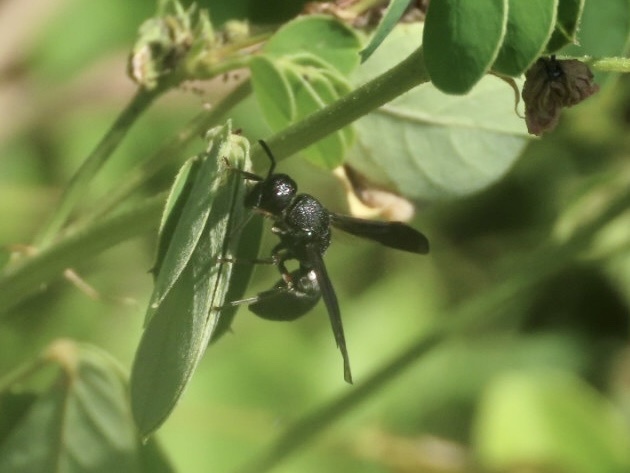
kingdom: Animalia
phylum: Arthropoda
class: Insecta
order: Hymenoptera
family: Eumenidae
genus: Orancistrocerus
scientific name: Orancistrocerus aterrimus
